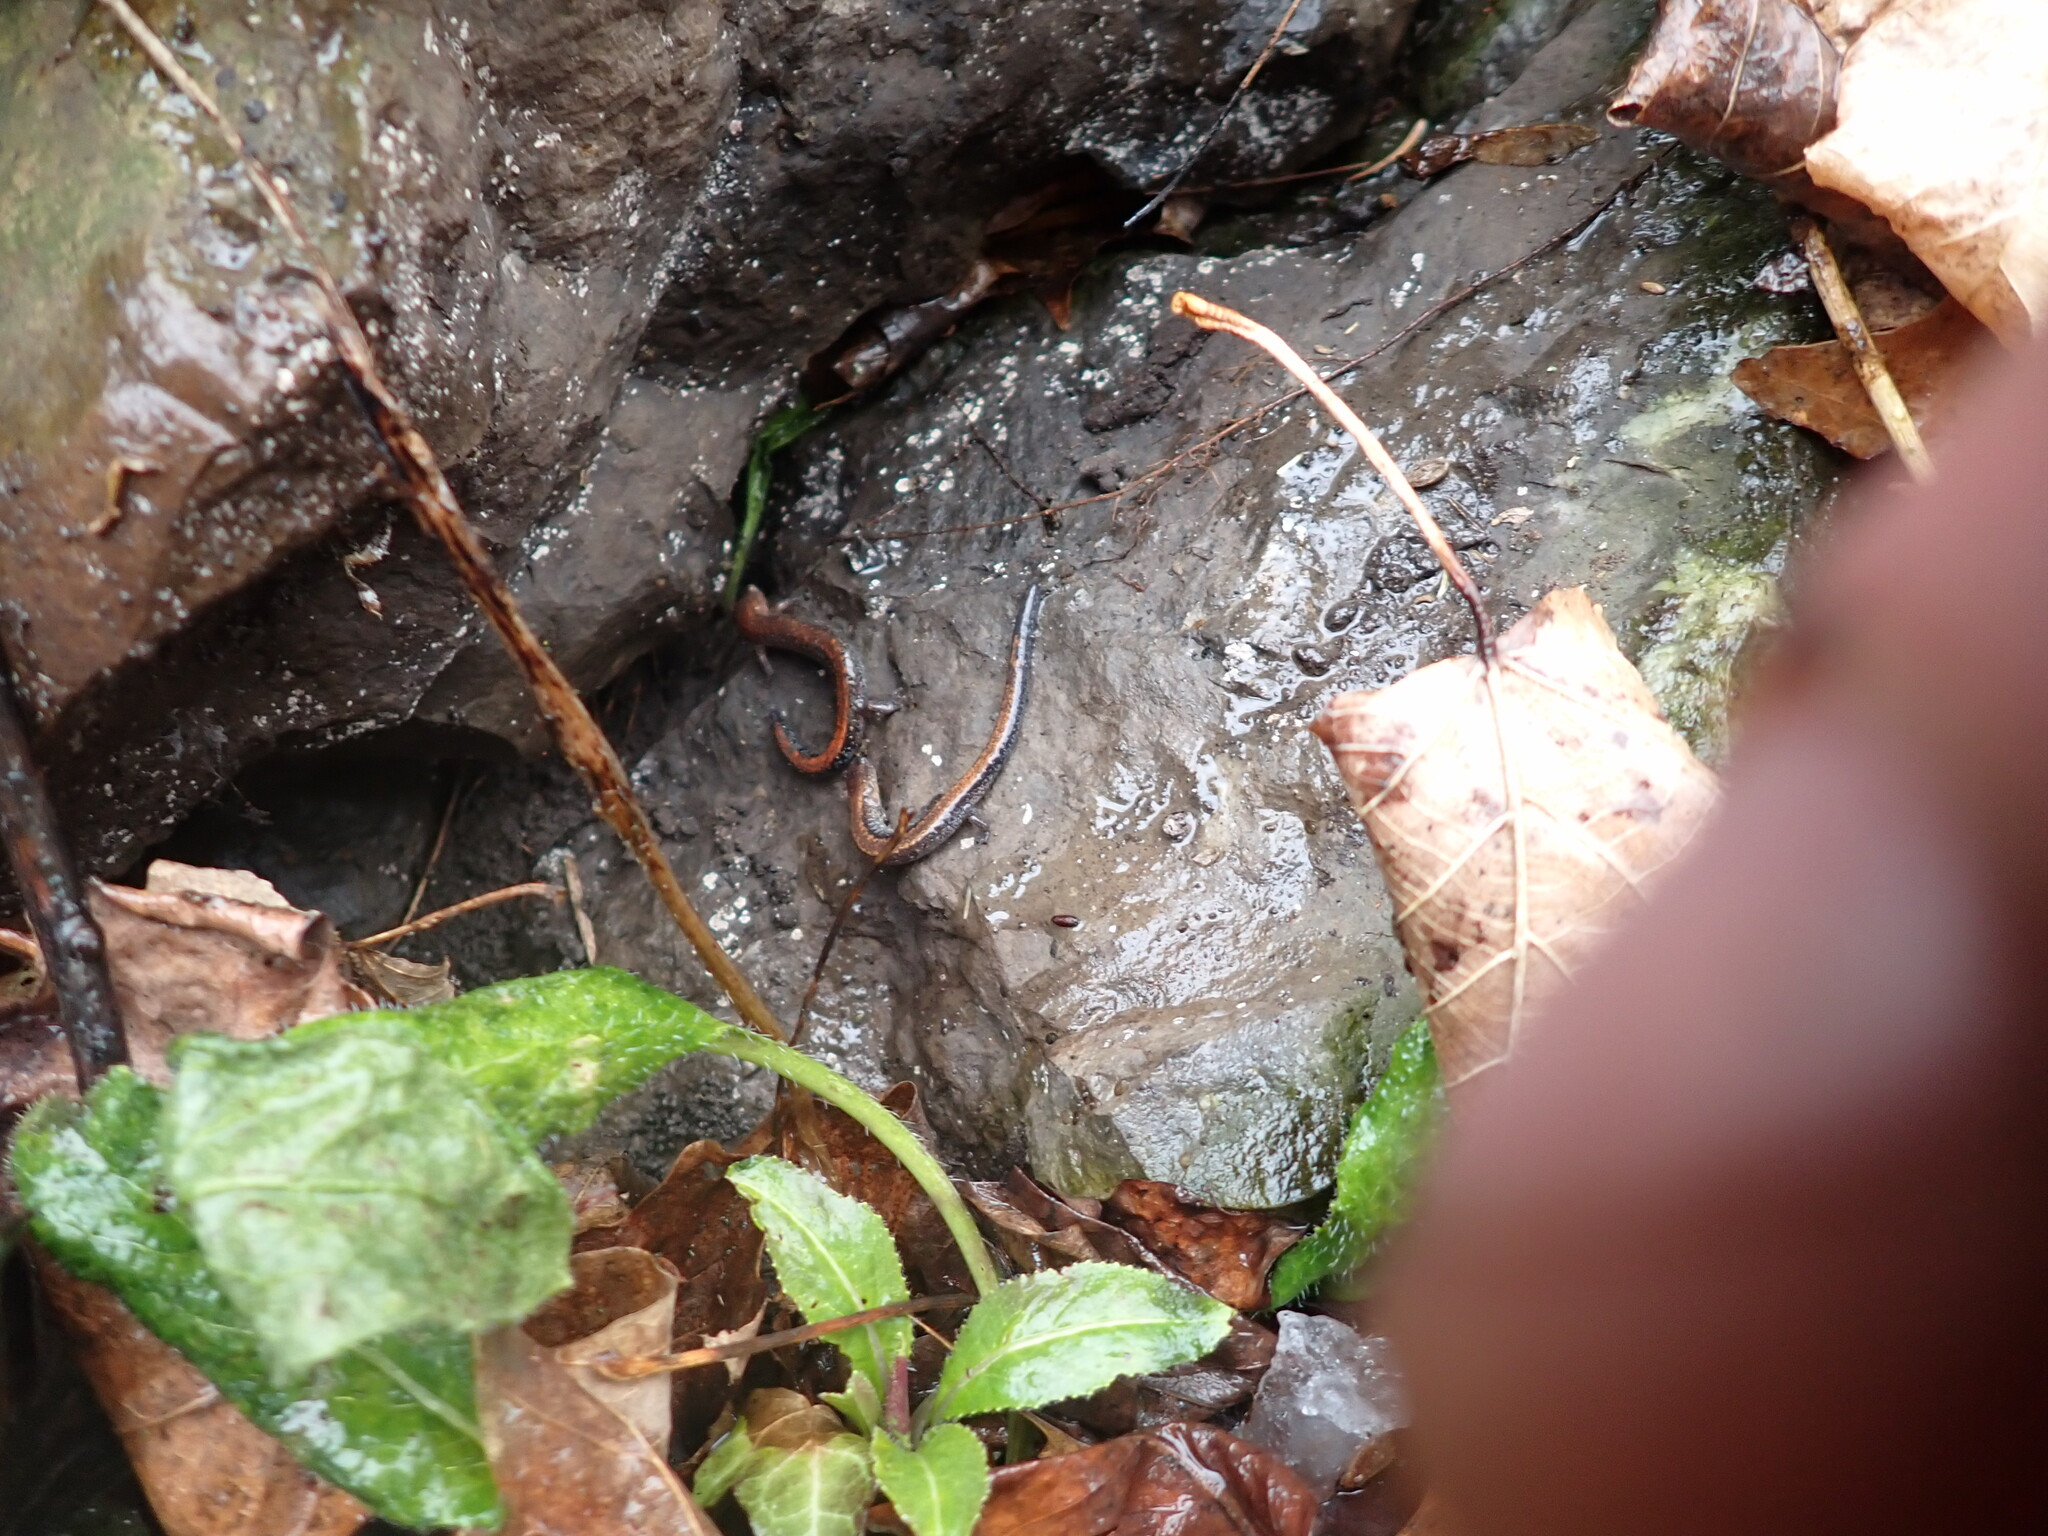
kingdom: Animalia
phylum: Chordata
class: Amphibia
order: Caudata
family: Plethodontidae
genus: Plethodon
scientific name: Plethodon cinereus
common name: Redback salamander
